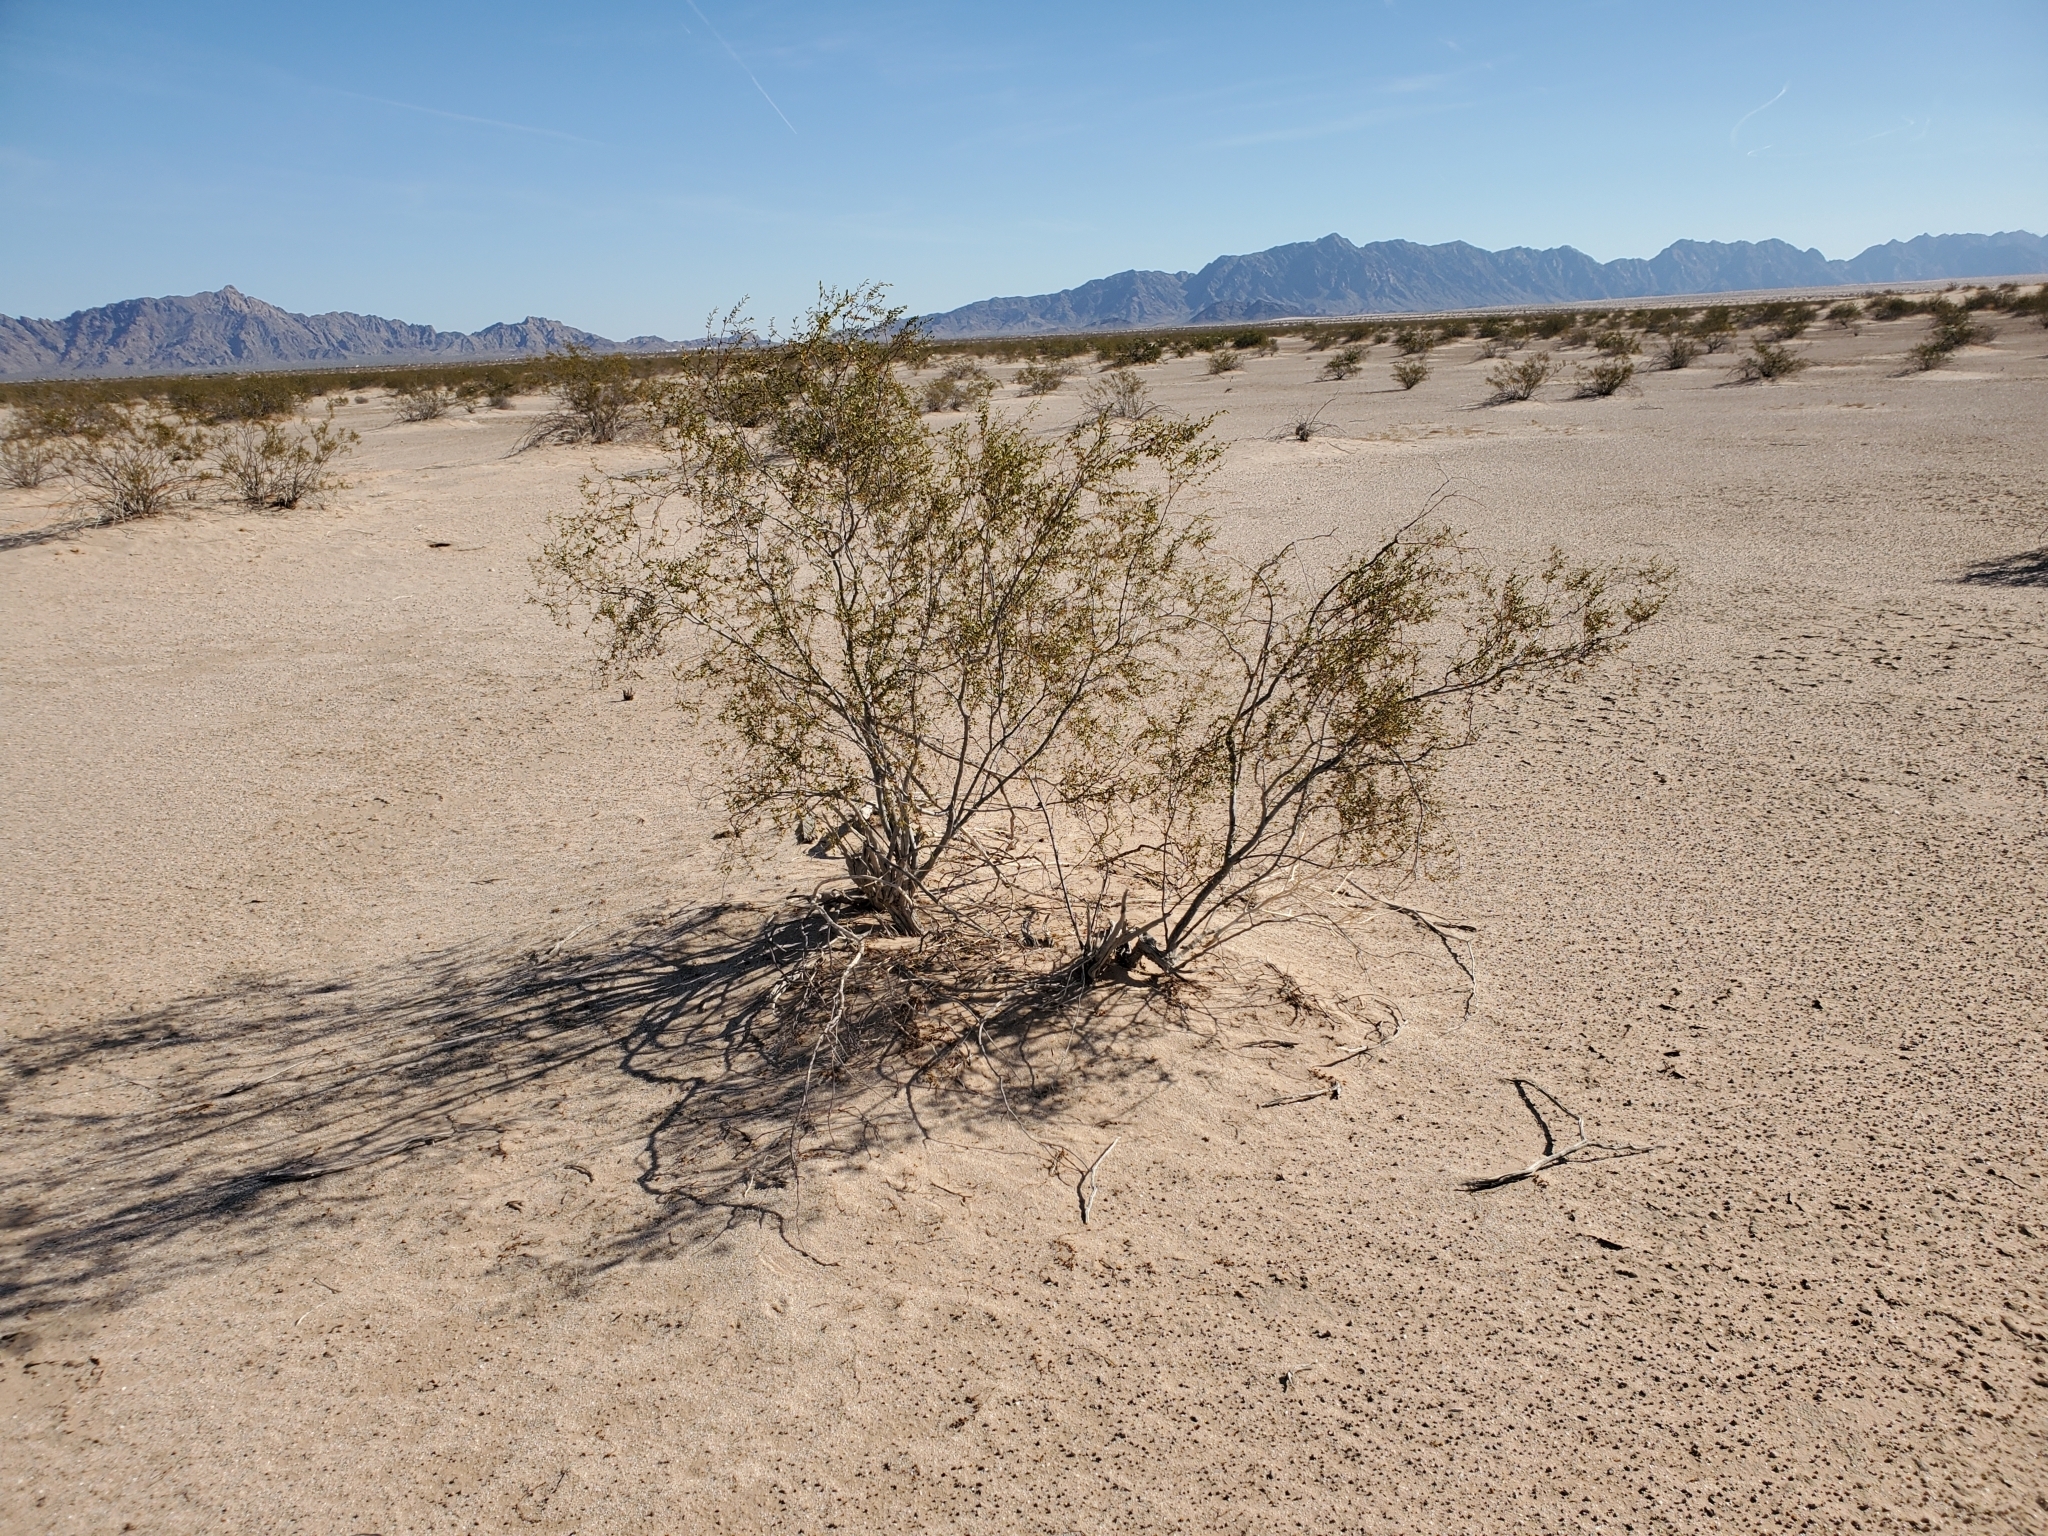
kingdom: Plantae
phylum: Tracheophyta
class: Magnoliopsida
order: Zygophyllales
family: Zygophyllaceae
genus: Larrea
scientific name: Larrea tridentata
